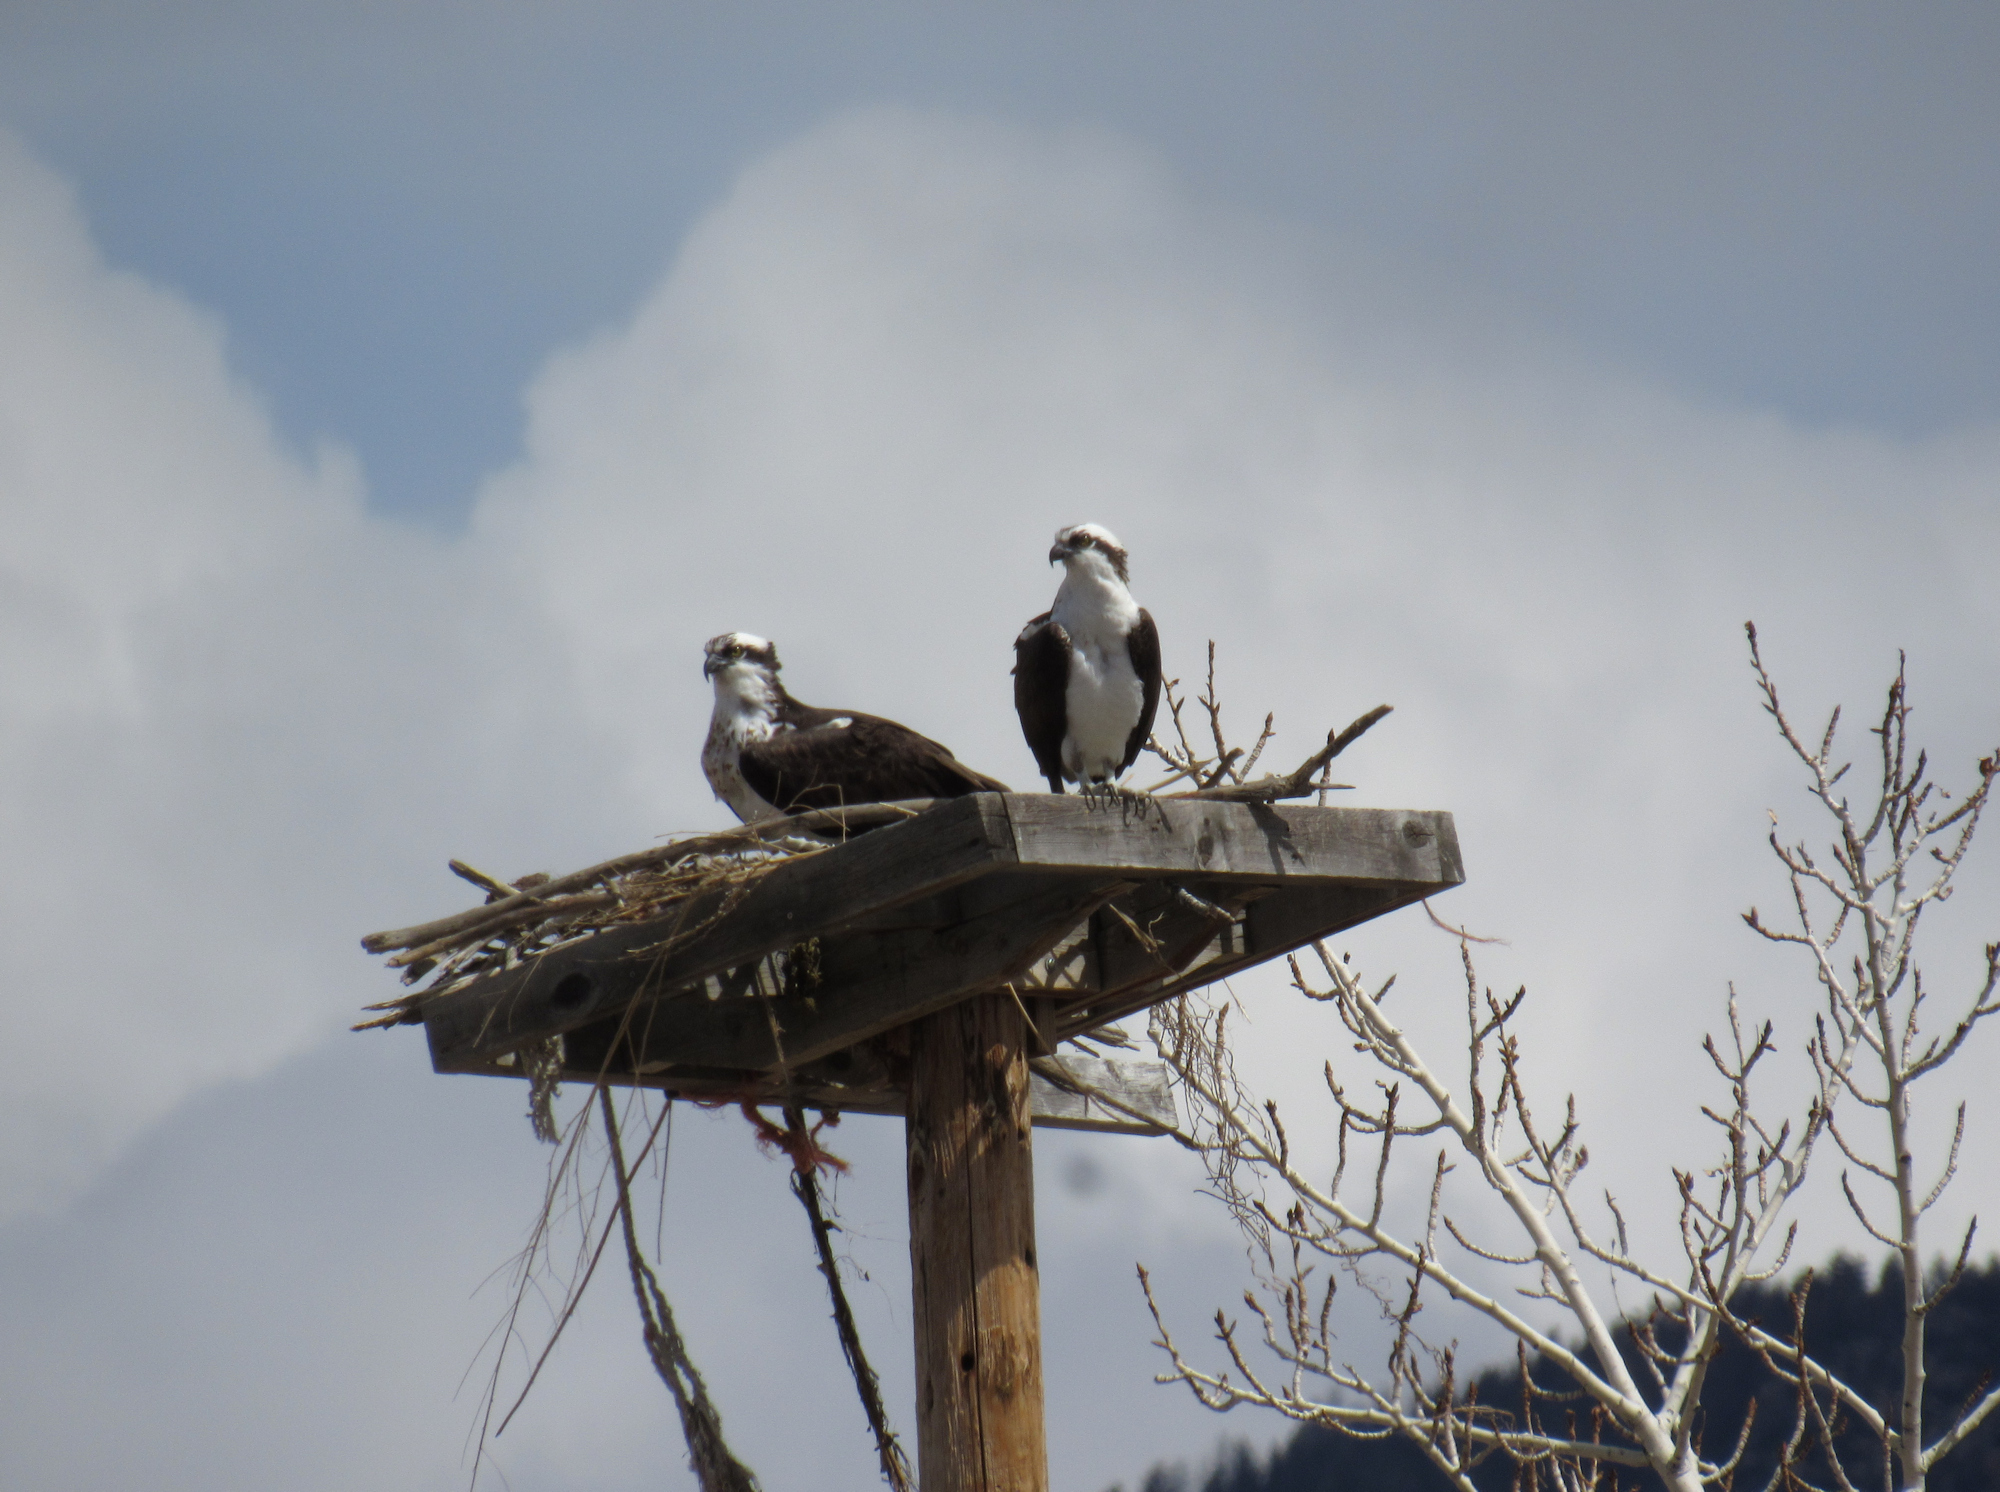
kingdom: Animalia
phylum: Chordata
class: Aves
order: Accipitriformes
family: Pandionidae
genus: Pandion
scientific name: Pandion haliaetus
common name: Osprey
